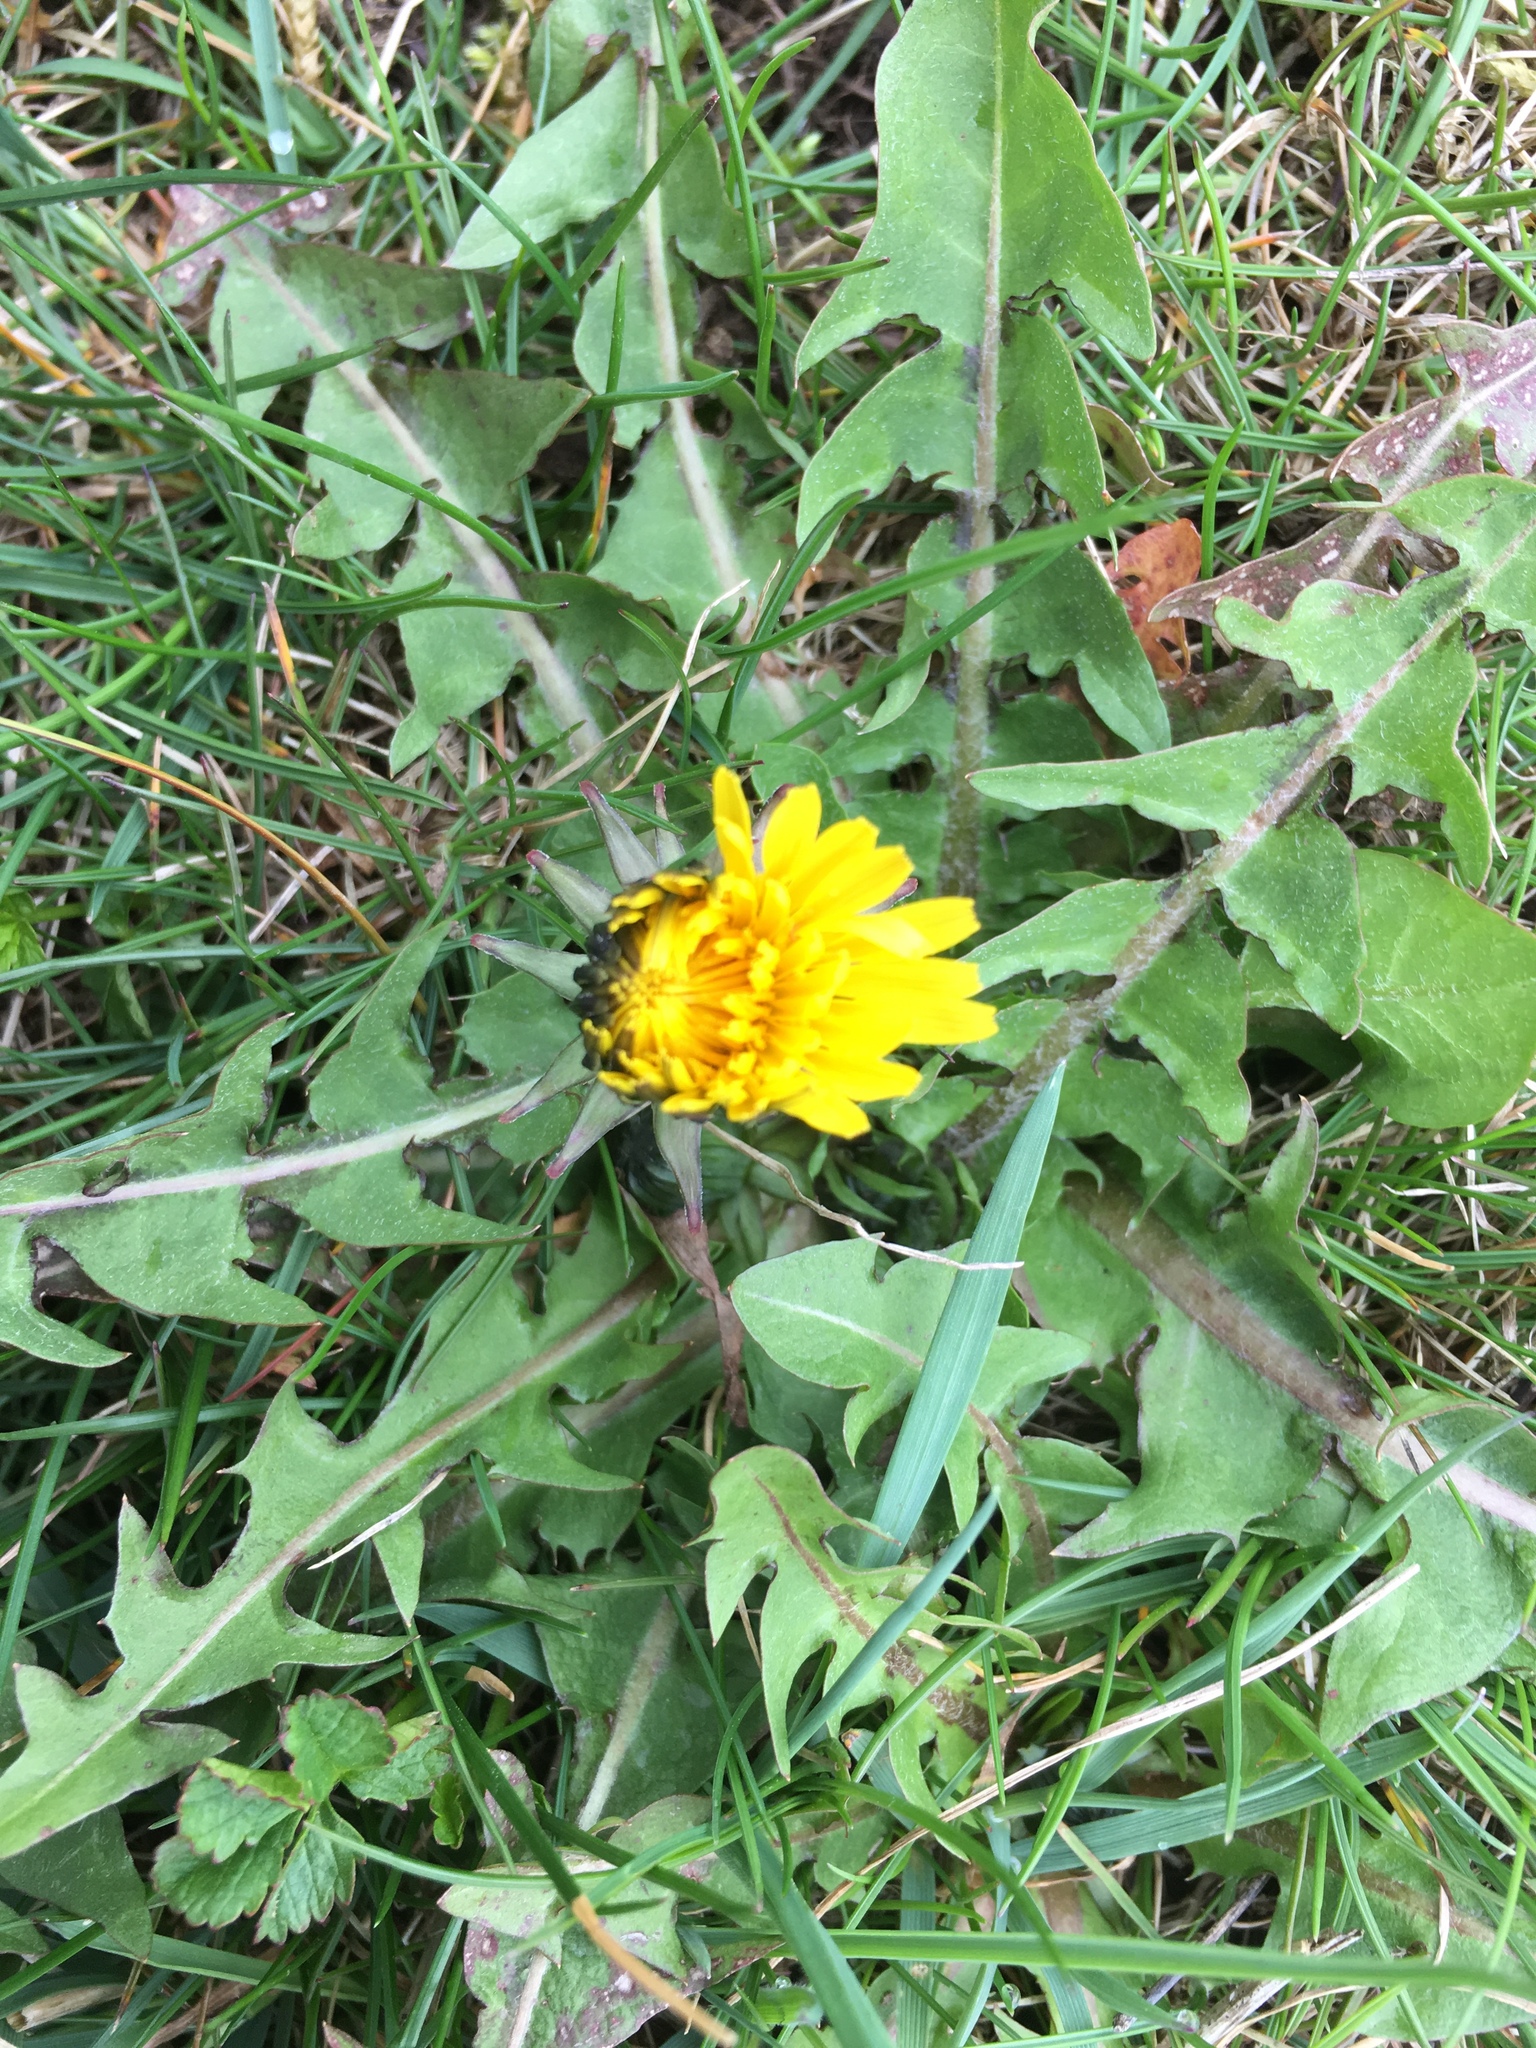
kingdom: Plantae
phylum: Tracheophyta
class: Magnoliopsida
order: Asterales
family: Asteraceae
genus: Taraxacum
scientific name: Taraxacum officinale
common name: Common dandelion
